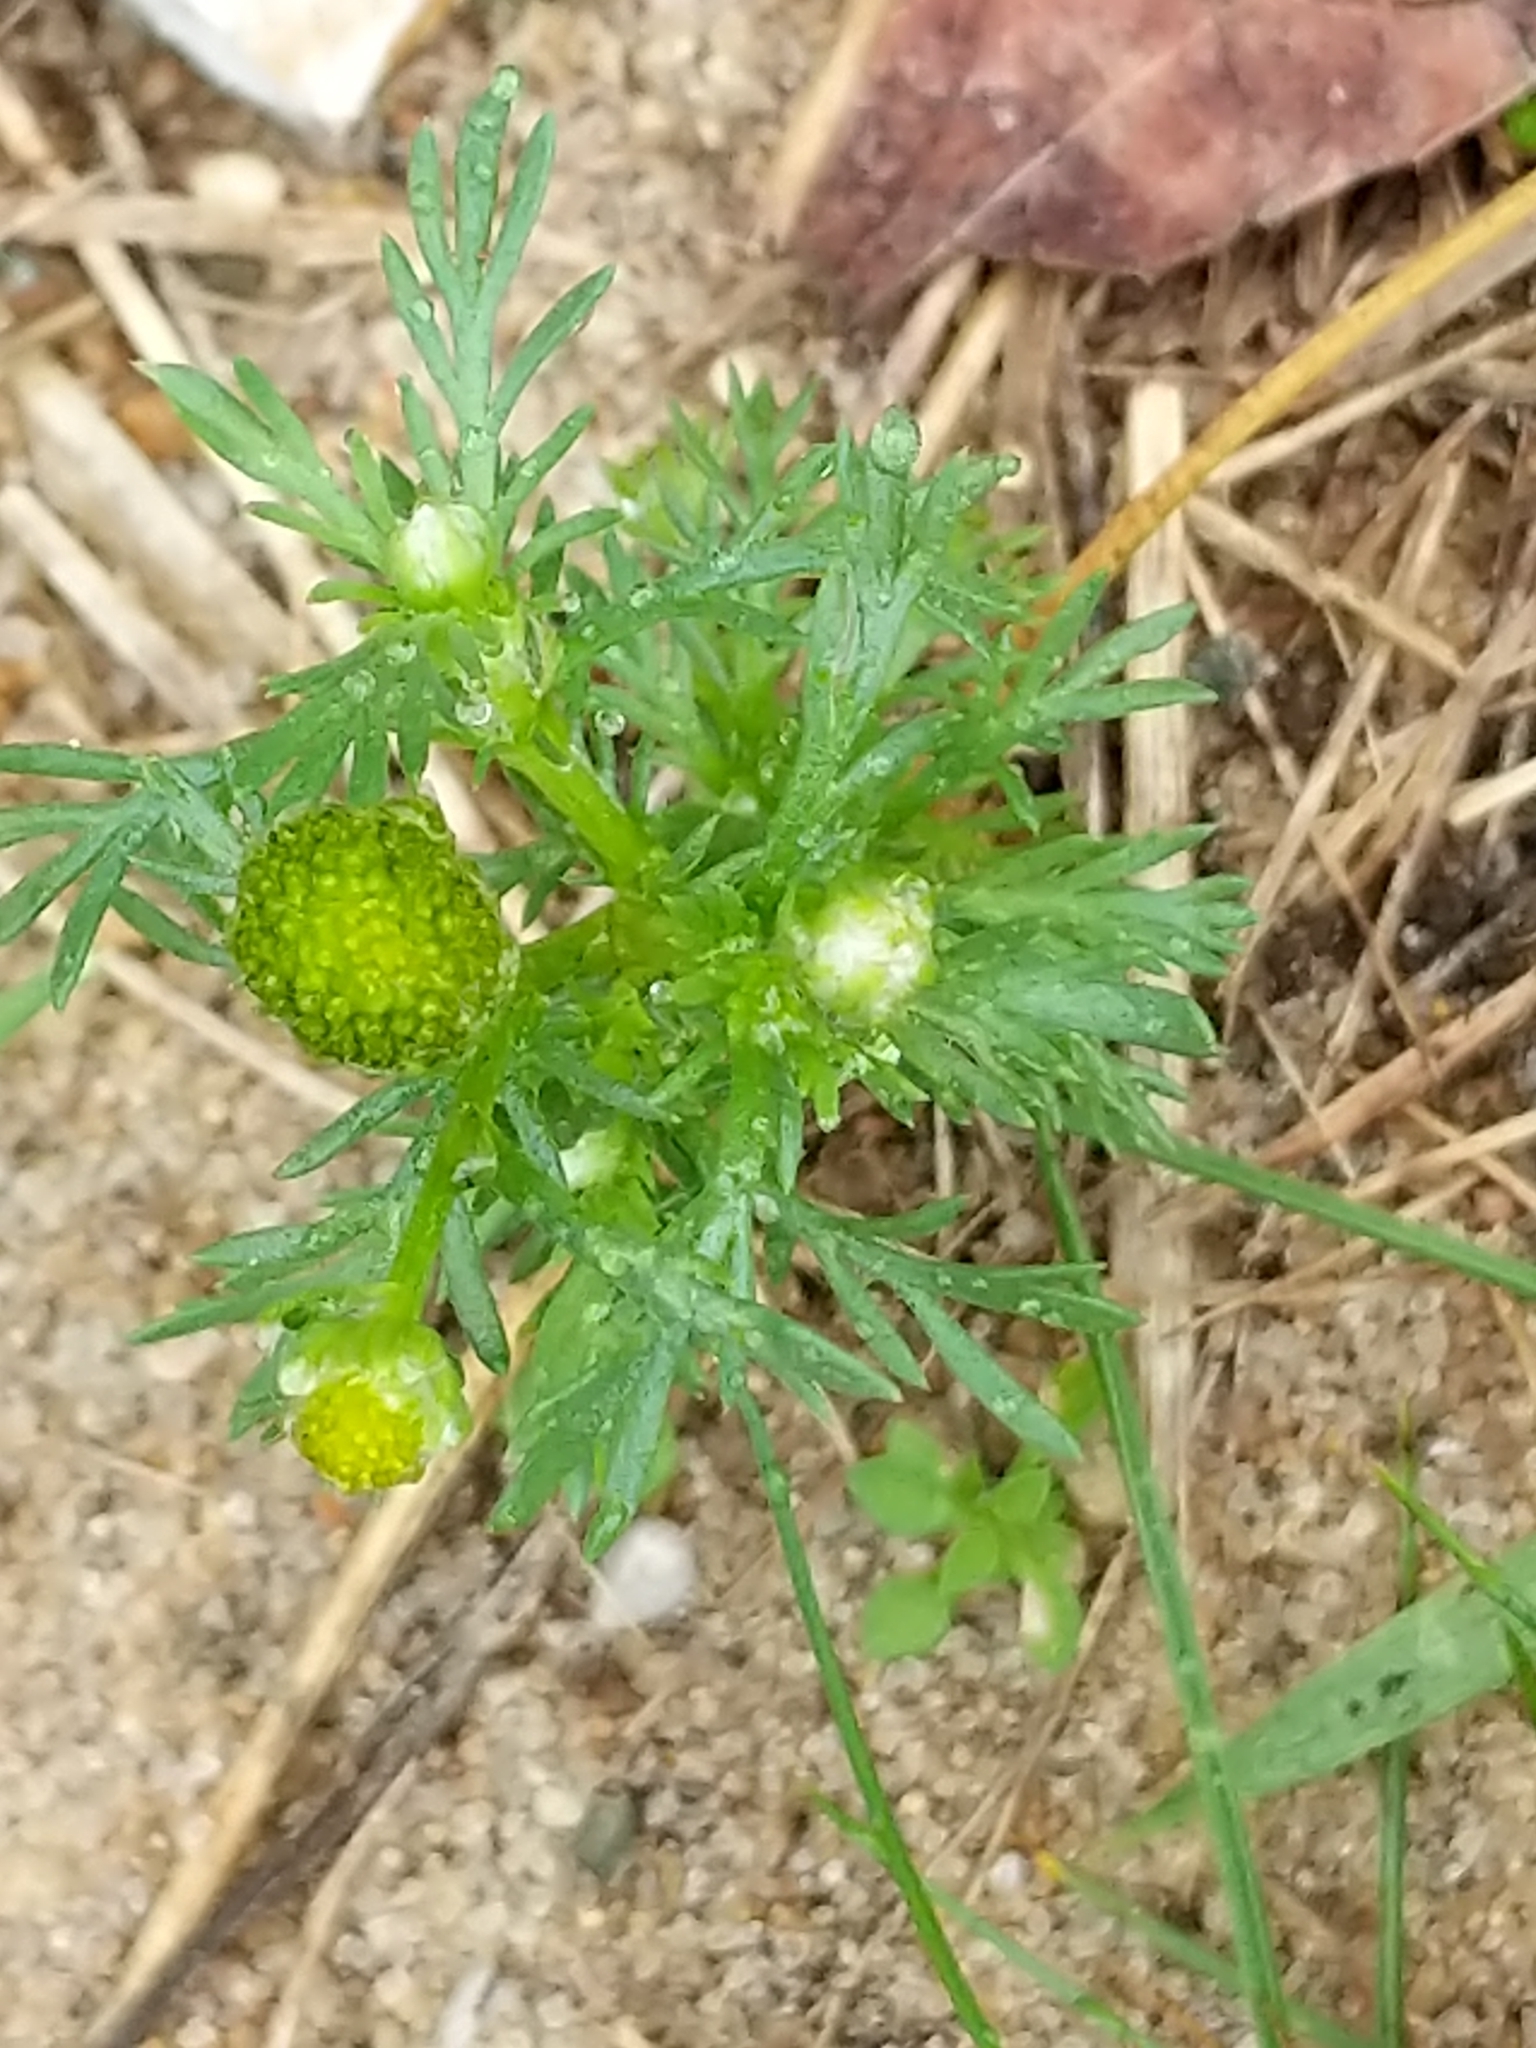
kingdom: Plantae
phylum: Tracheophyta
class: Magnoliopsida
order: Asterales
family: Asteraceae
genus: Matricaria
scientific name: Matricaria discoidea
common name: Disc mayweed
